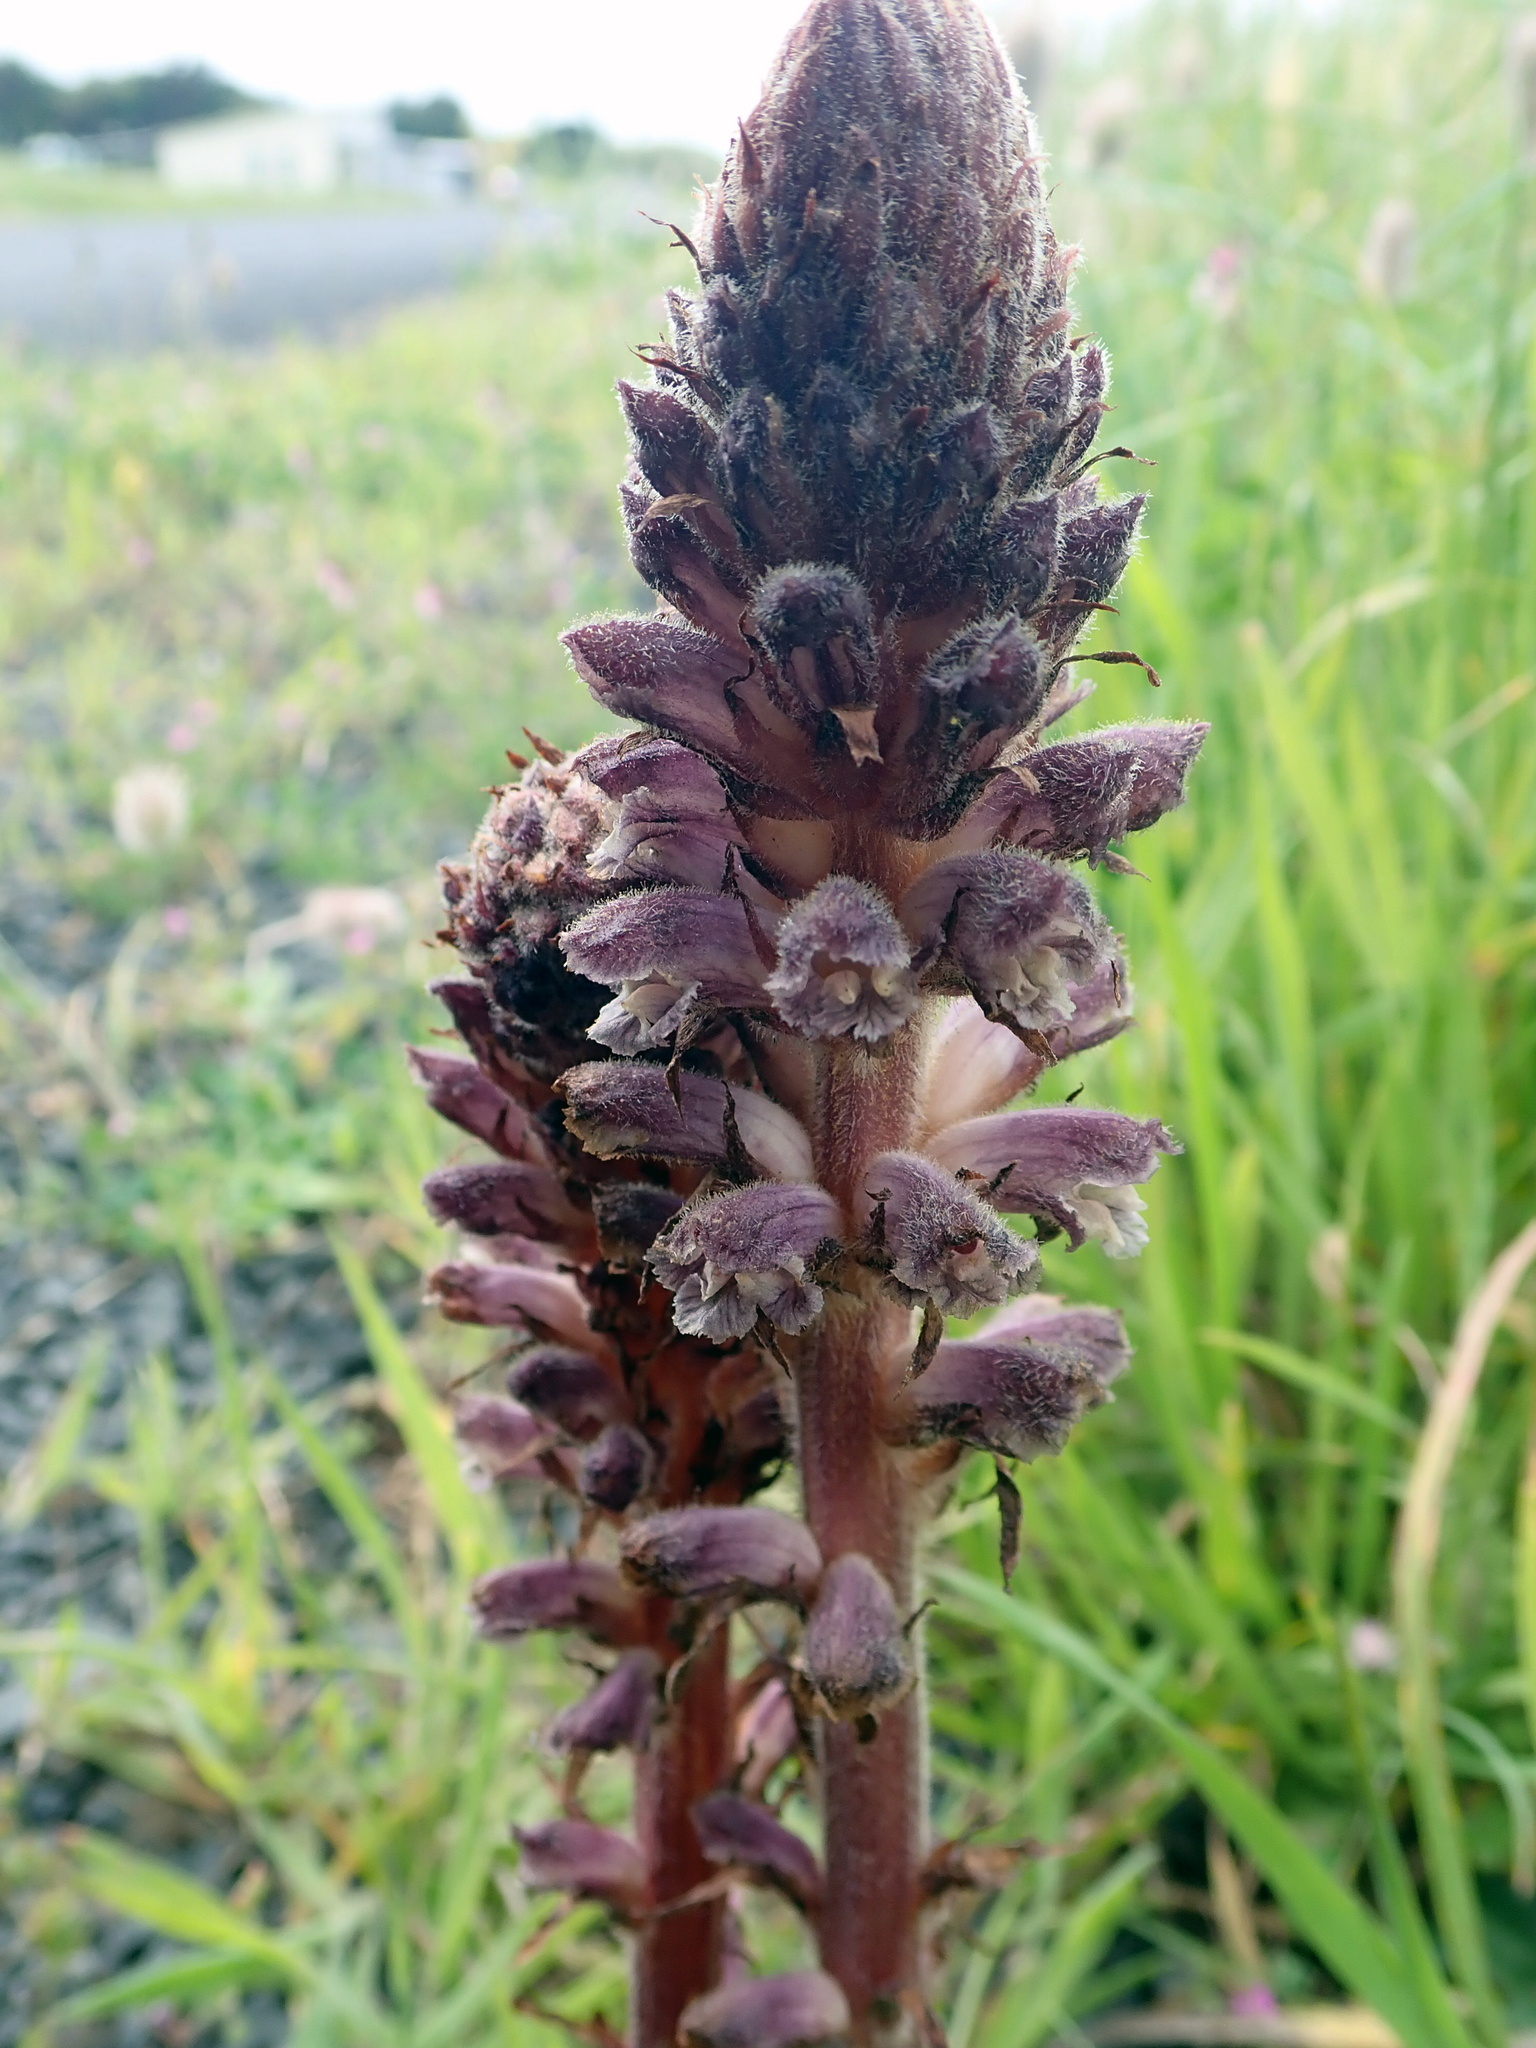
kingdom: Plantae
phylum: Tracheophyta
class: Magnoliopsida
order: Lamiales
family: Orobanchaceae
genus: Orobanche
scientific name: Orobanche minor
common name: Common broomrape
